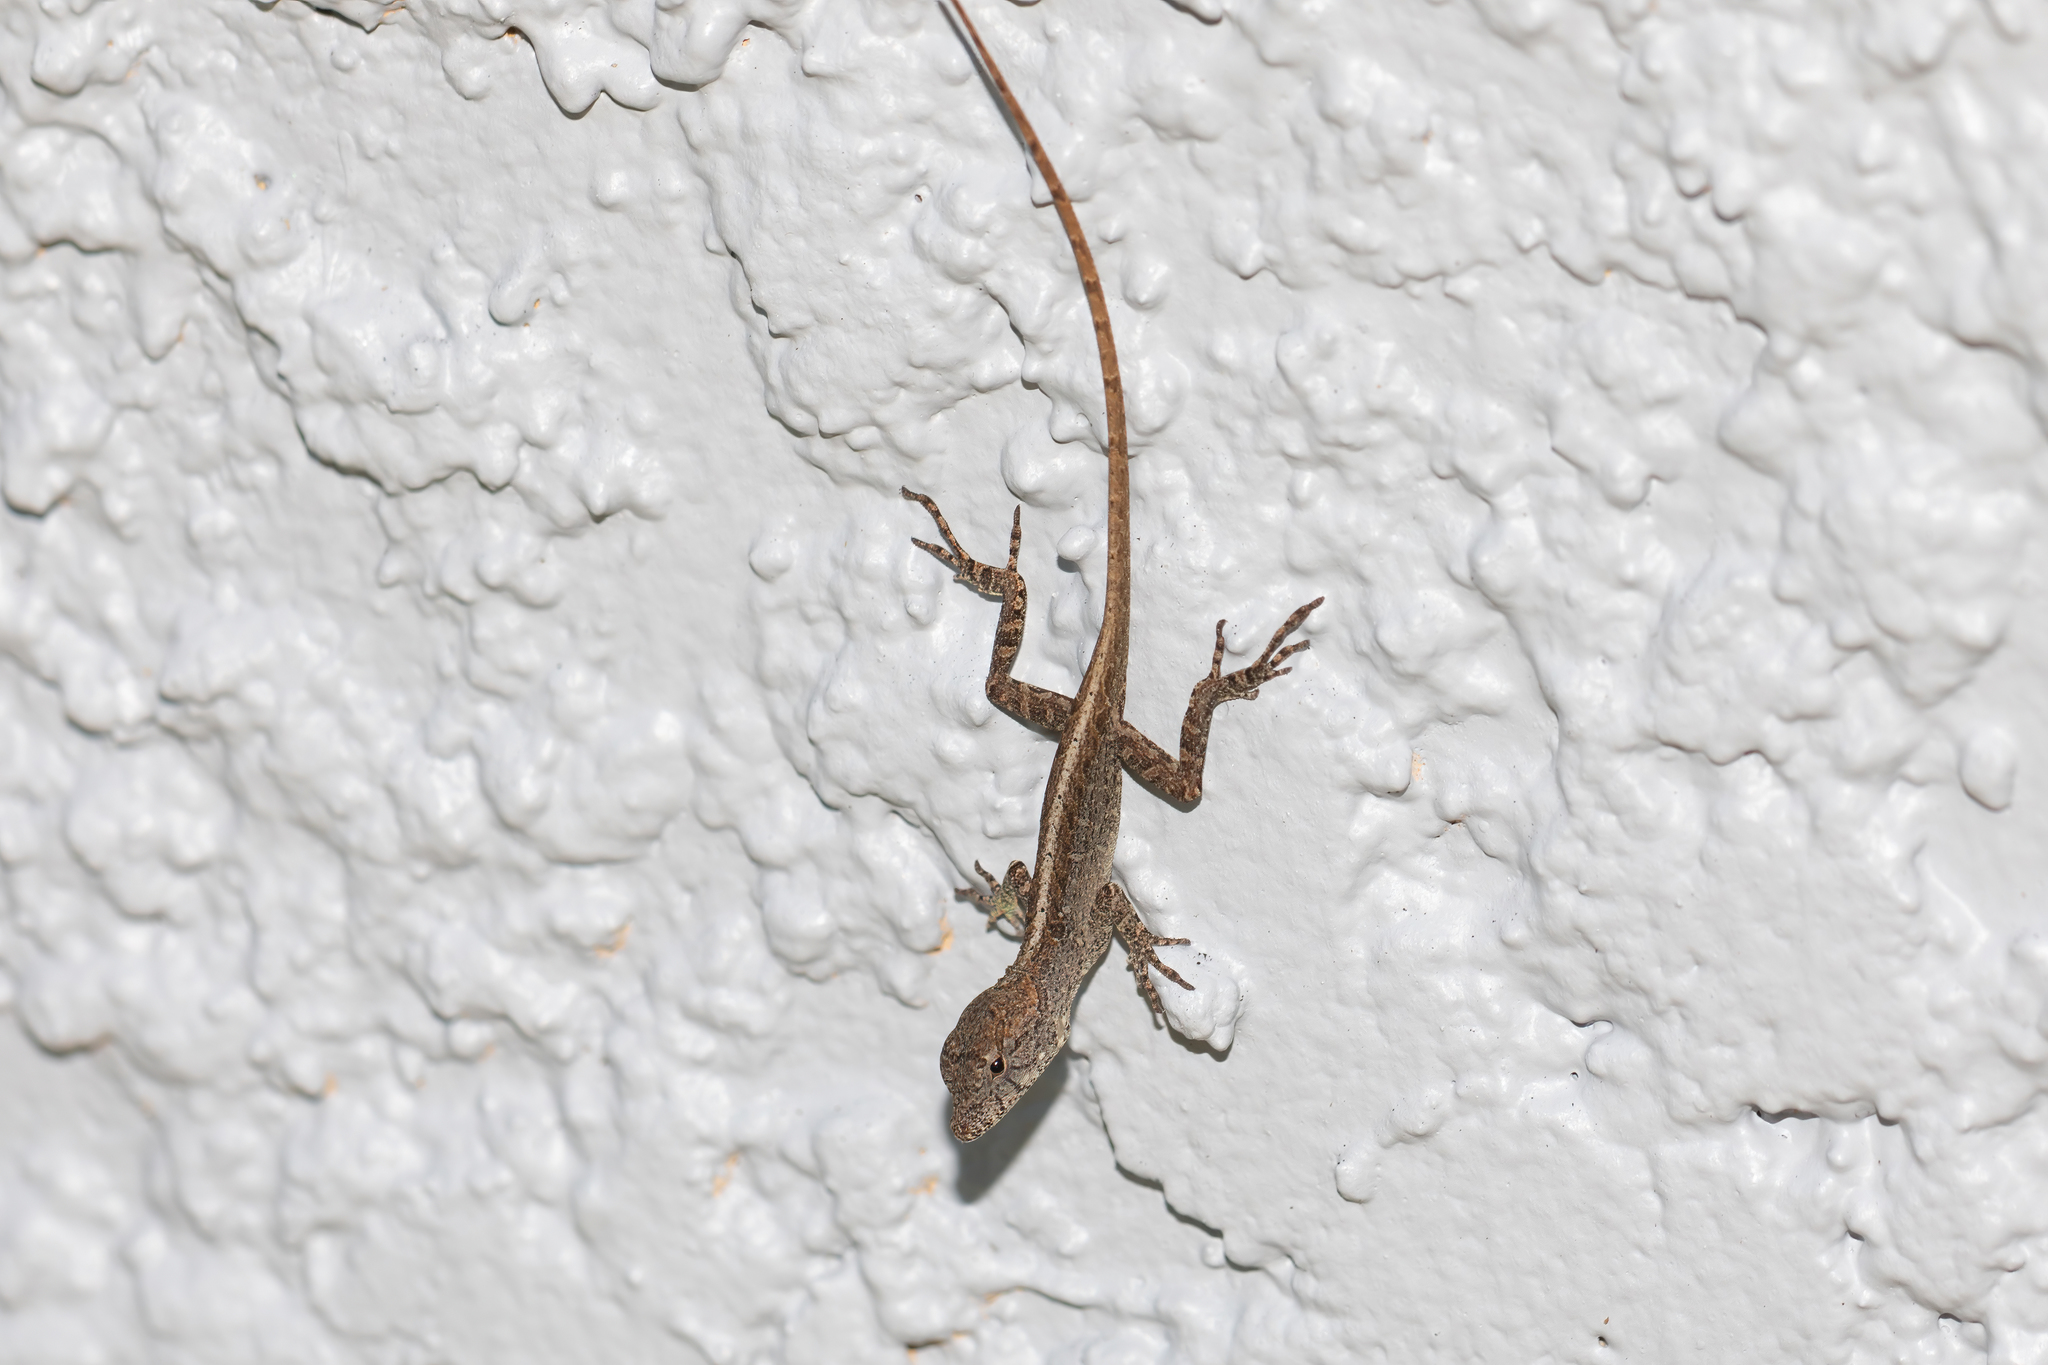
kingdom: Animalia
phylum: Chordata
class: Squamata
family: Dactyloidae
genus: Anolis
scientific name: Anolis sagrei
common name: Brown anole
